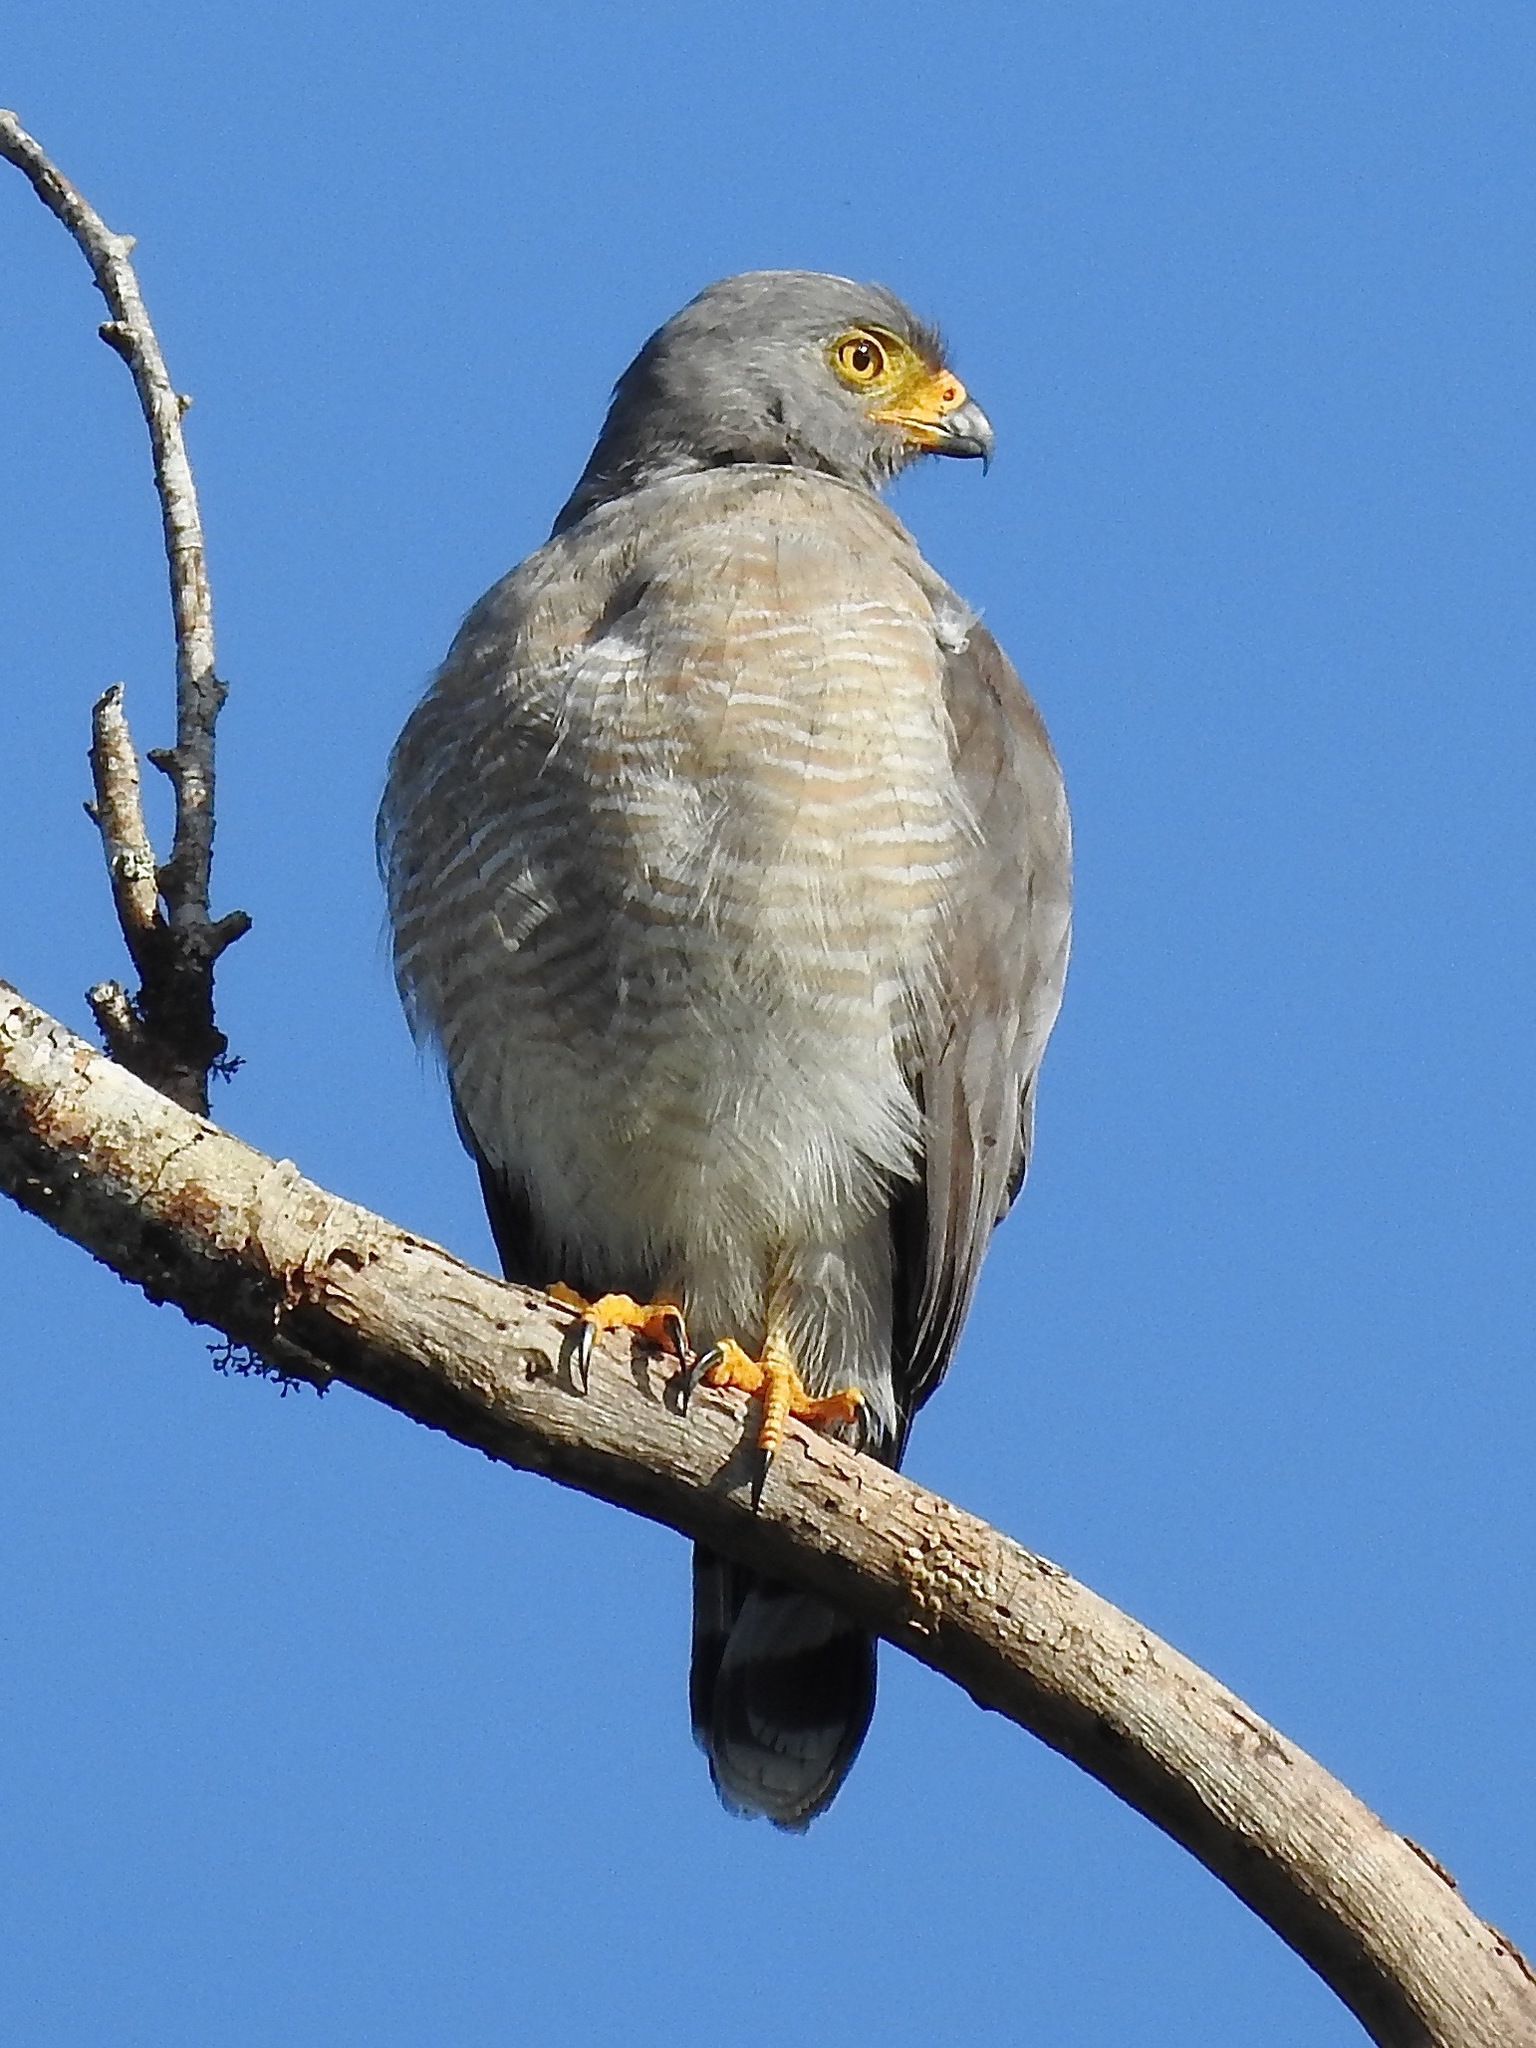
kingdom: Animalia
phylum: Chordata
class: Aves
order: Accipitriformes
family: Accipitridae
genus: Rupornis
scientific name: Rupornis magnirostris
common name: Roadside hawk
